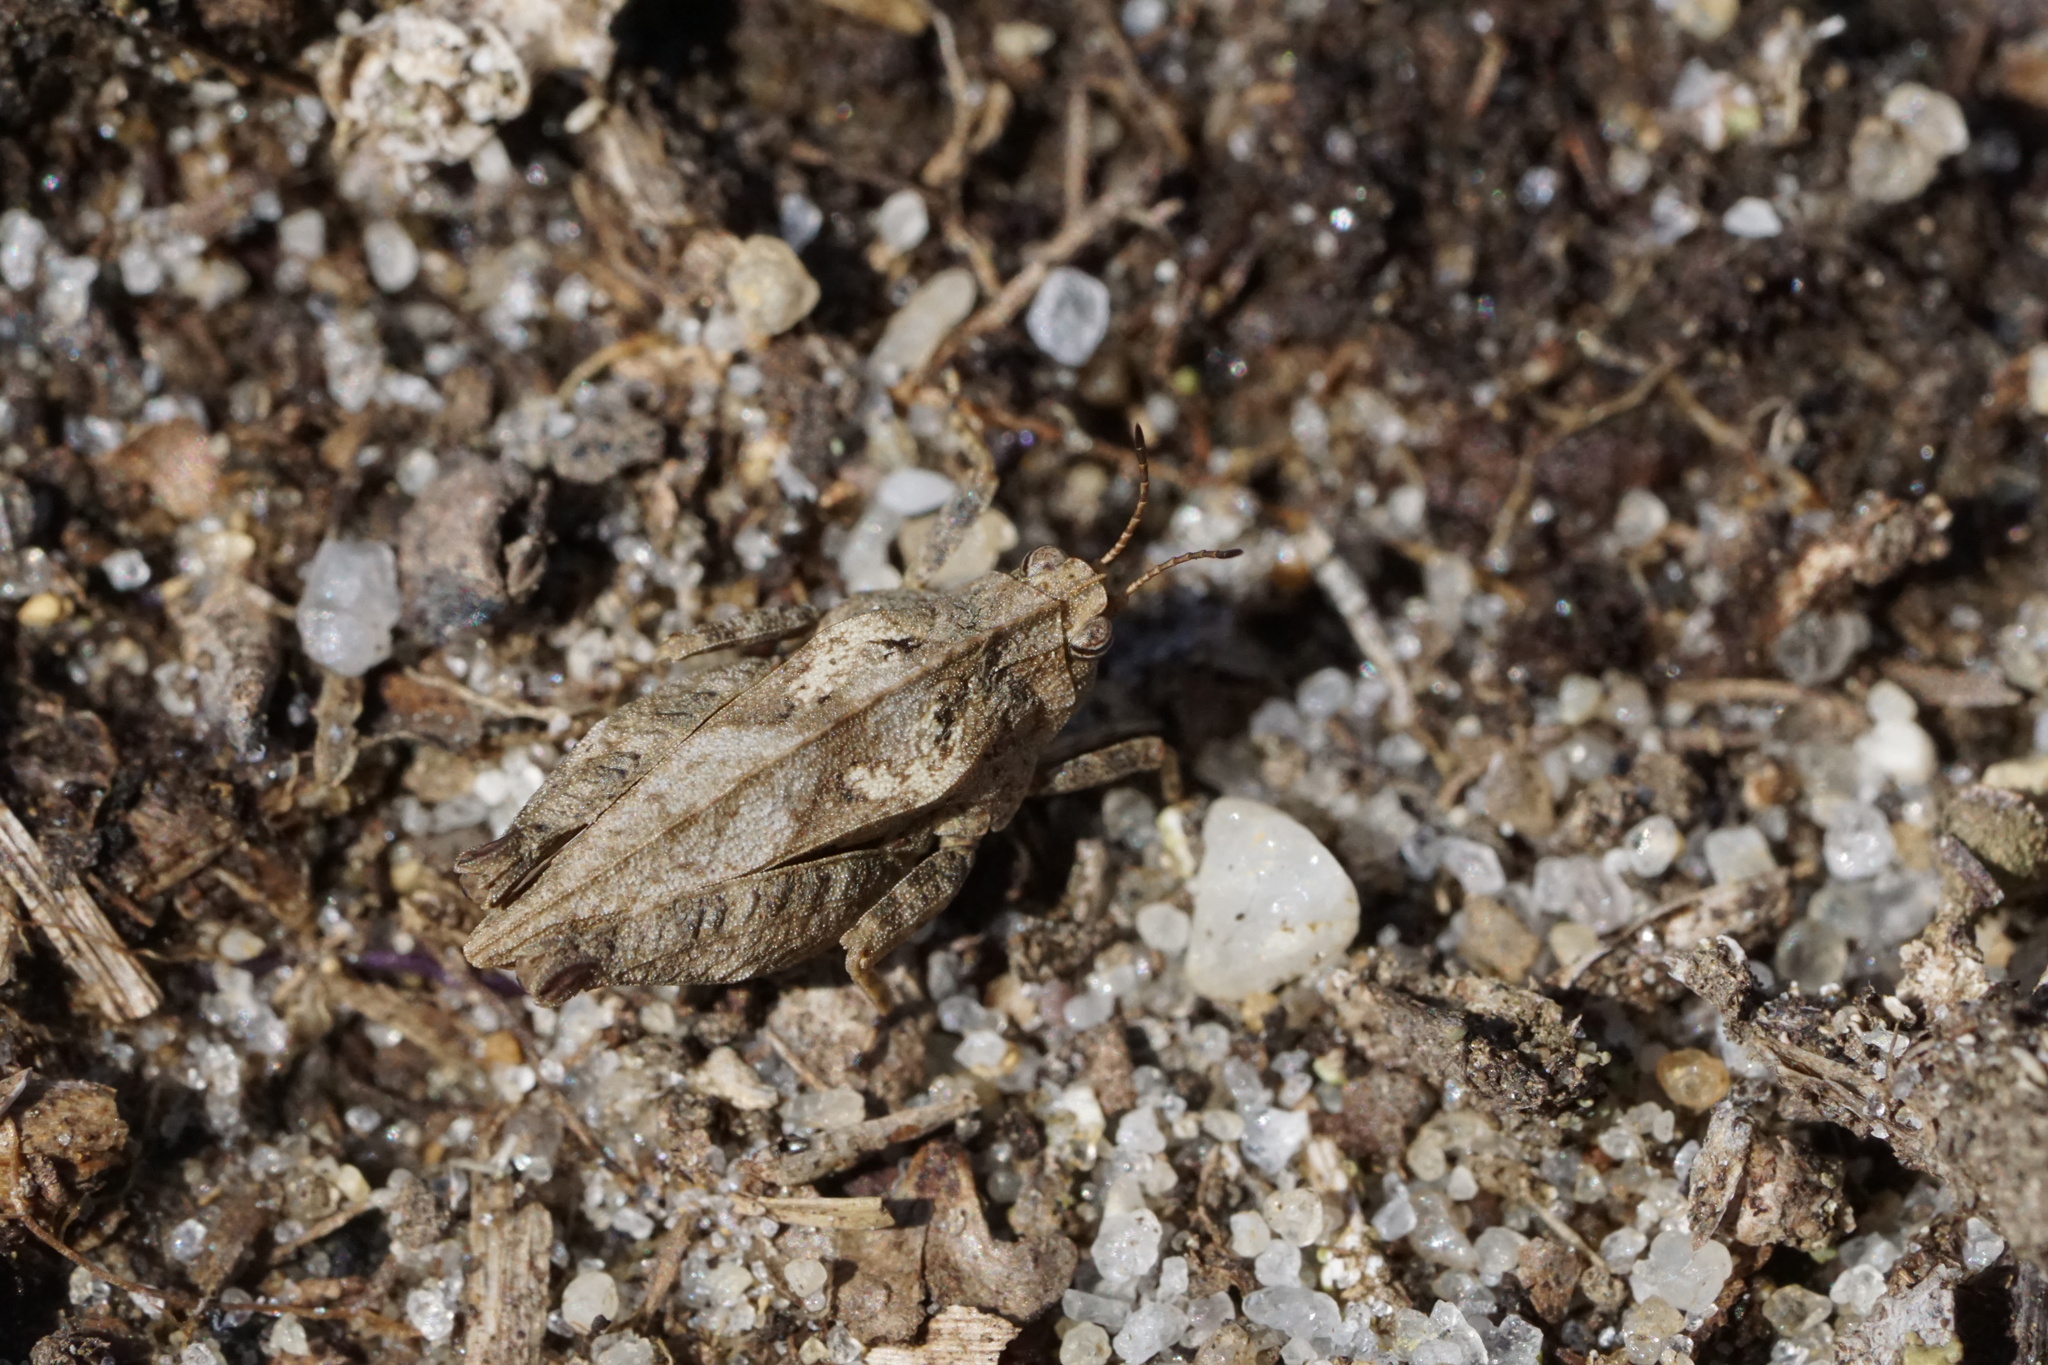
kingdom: Animalia
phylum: Arthropoda
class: Insecta
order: Orthoptera
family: Tetrigidae
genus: Nomotettix
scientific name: Nomotettix cristatus
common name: Crested grouse locust
